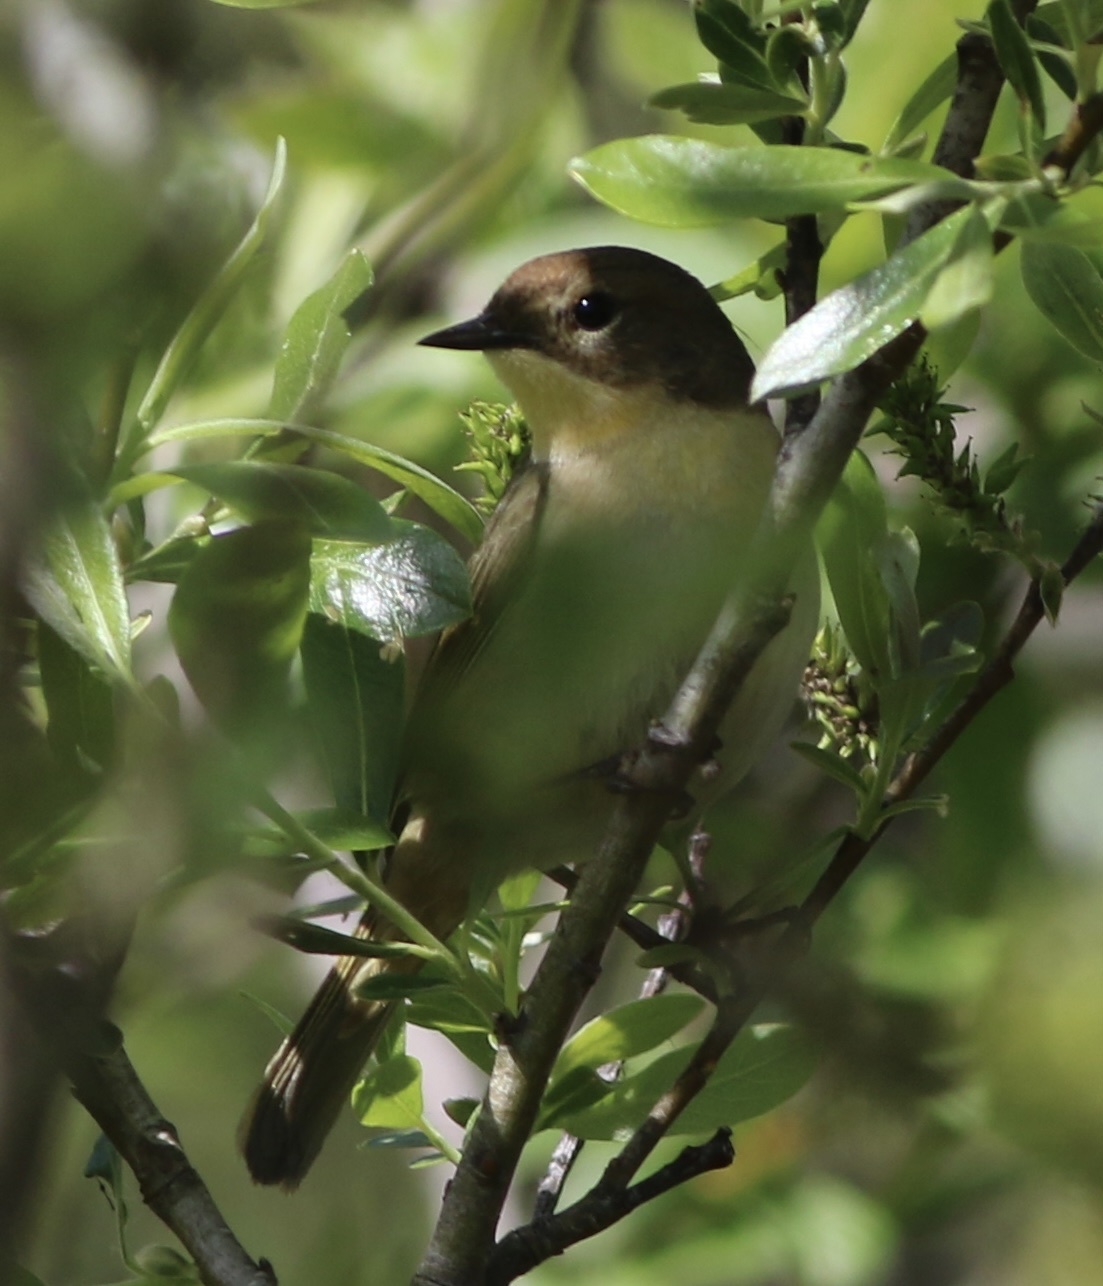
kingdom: Animalia
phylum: Chordata
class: Aves
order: Passeriformes
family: Parulidae
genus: Geothlypis
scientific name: Geothlypis trichas
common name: Common yellowthroat
